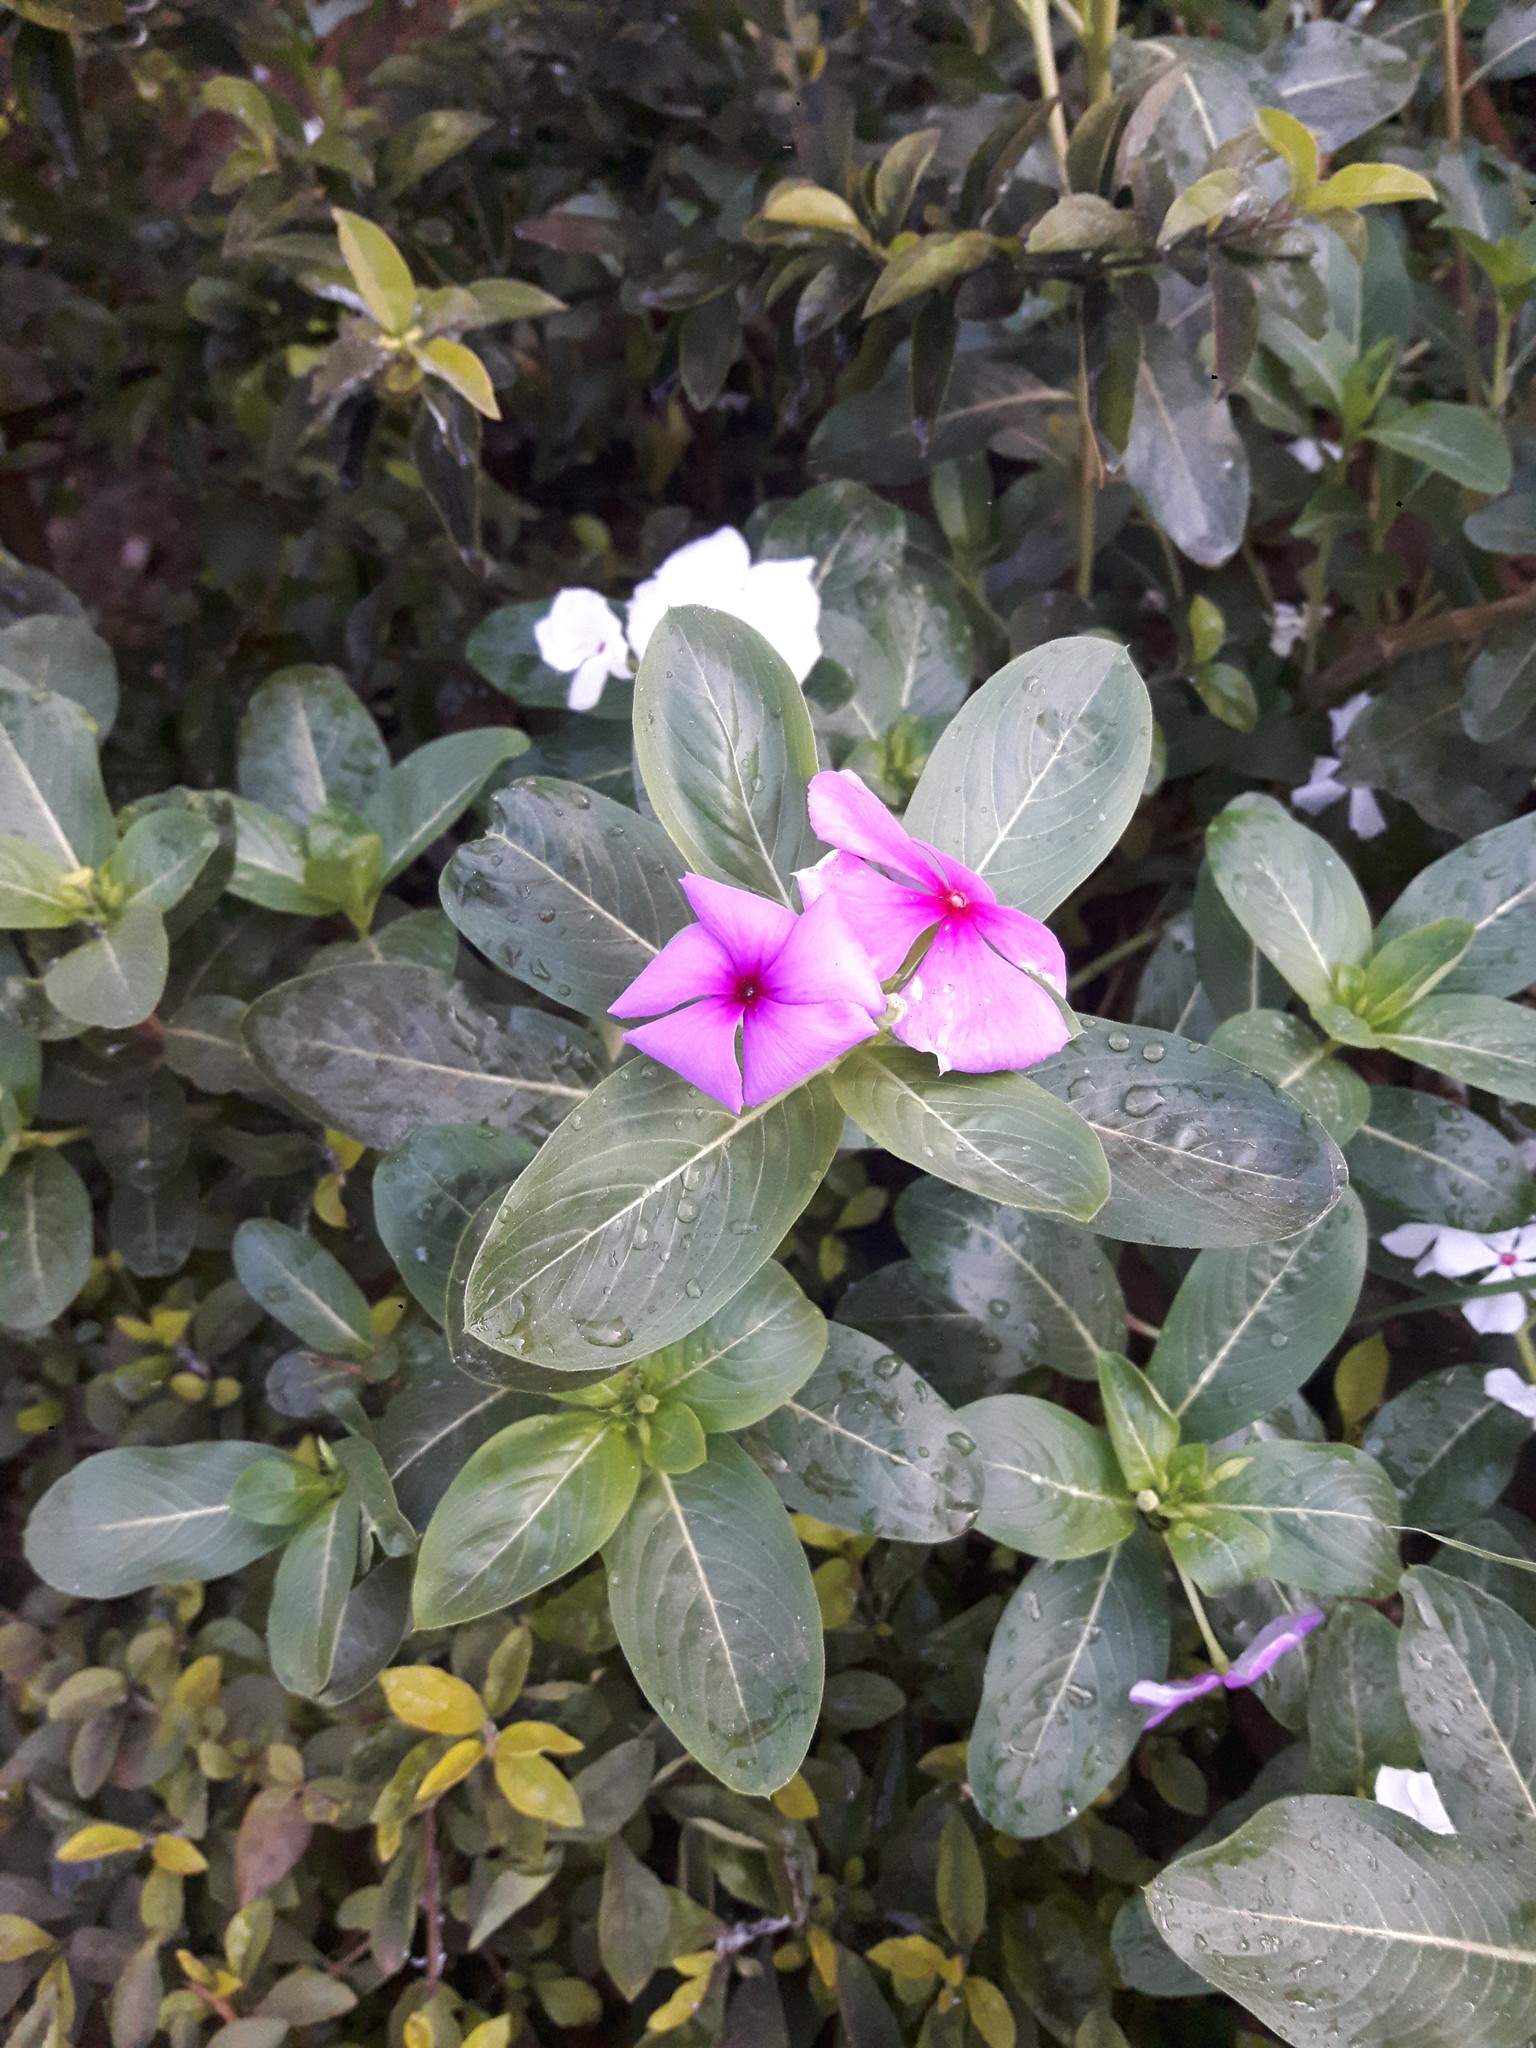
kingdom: Plantae
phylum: Tracheophyta
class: Magnoliopsida
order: Gentianales
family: Apocynaceae
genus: Catharanthus
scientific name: Catharanthus roseus
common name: Madagascar periwinkle
